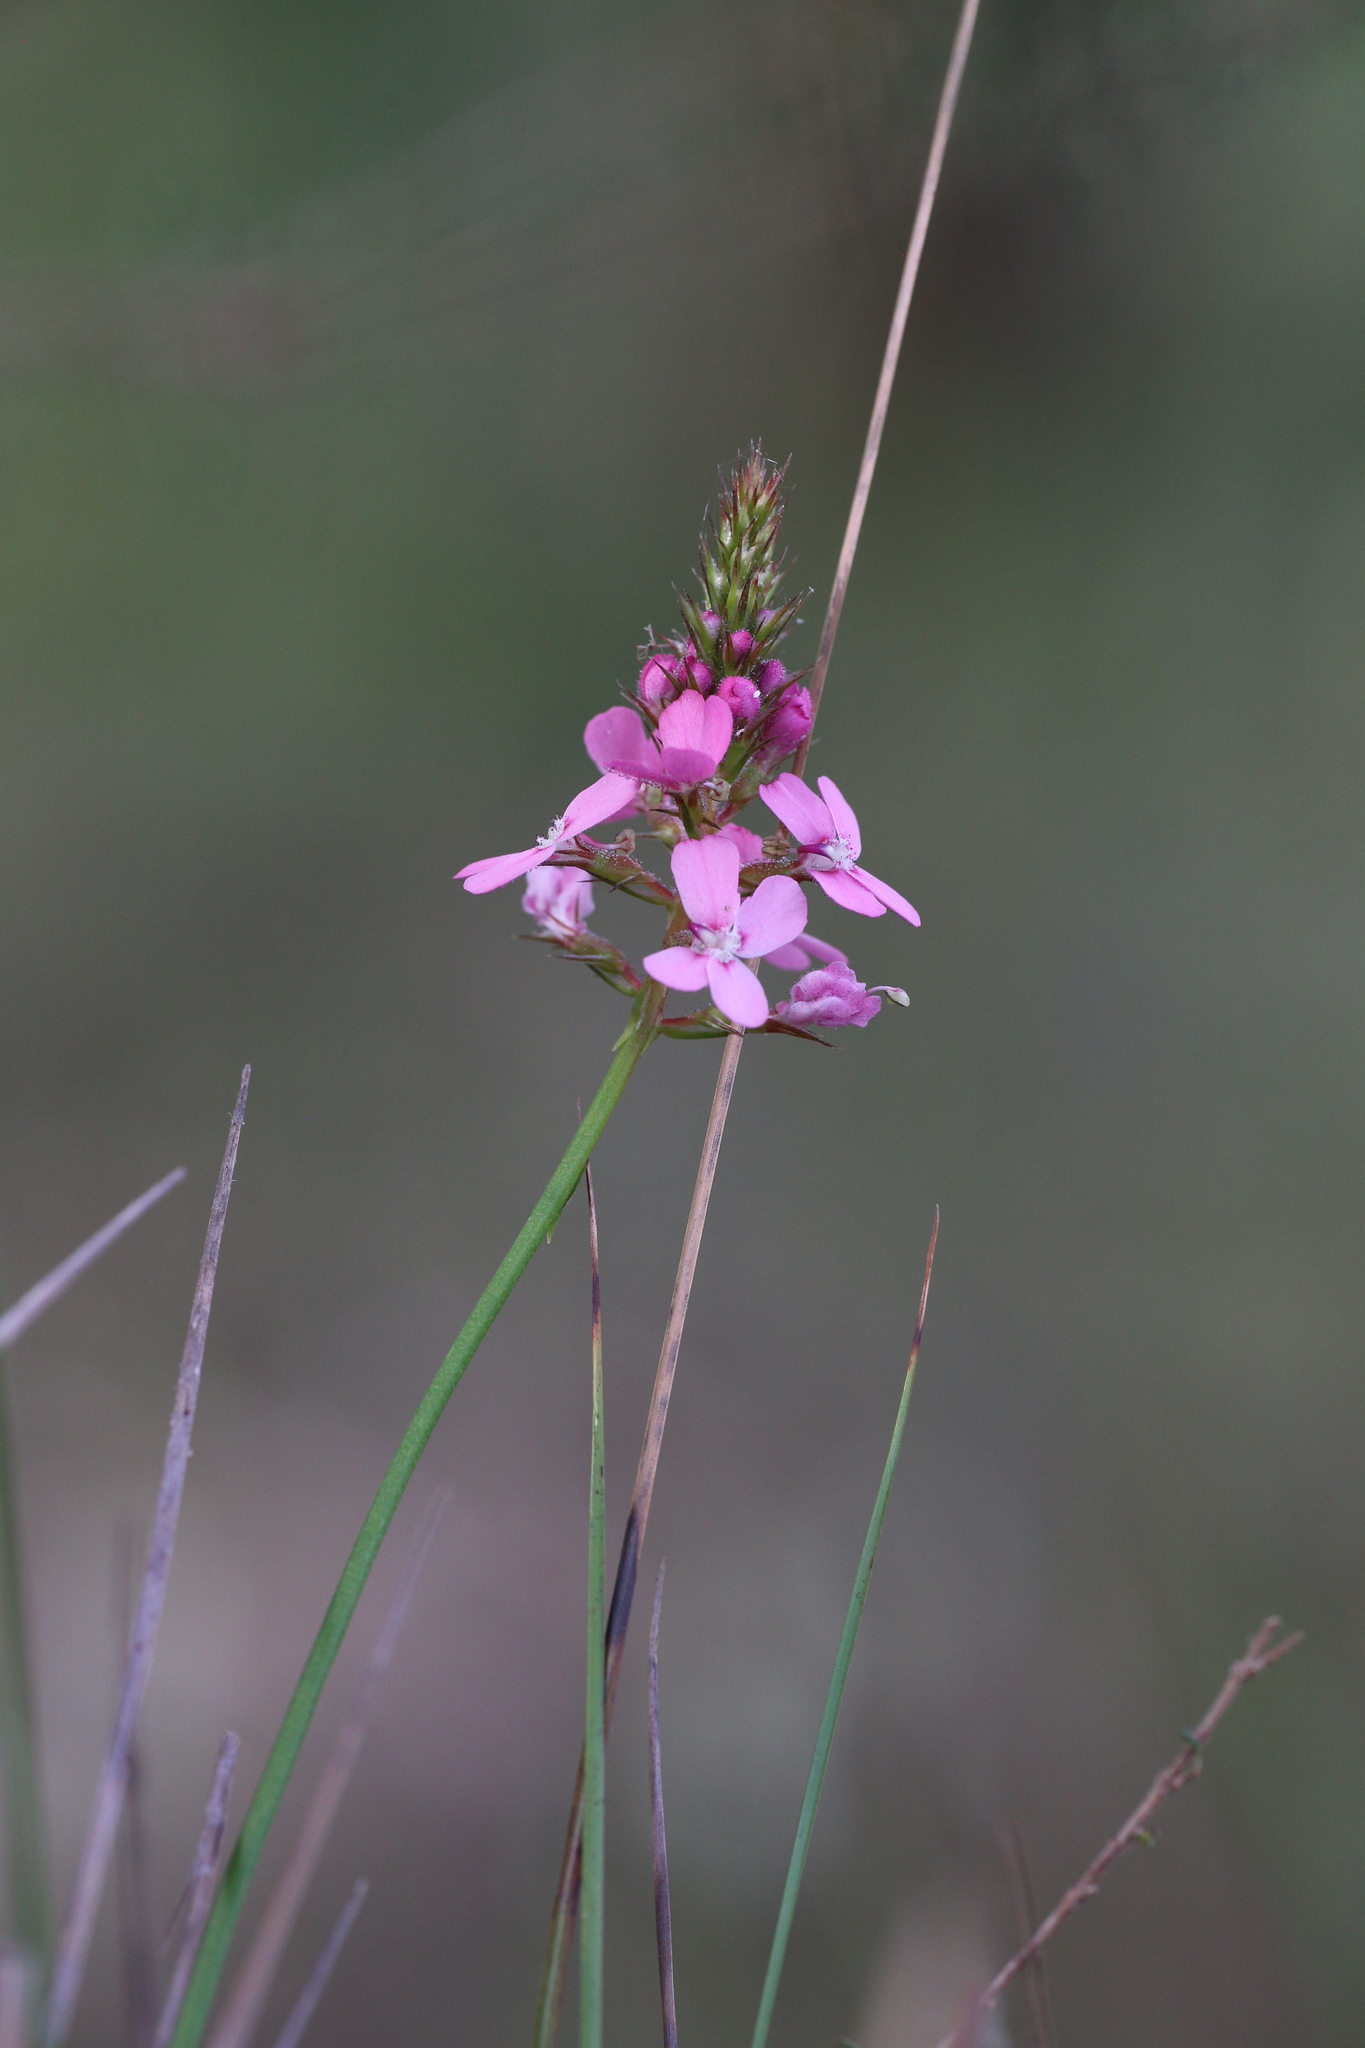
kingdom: Plantae
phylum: Tracheophyta
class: Magnoliopsida
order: Asterales
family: Stylidiaceae
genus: Stylidium
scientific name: Stylidium paludicola
